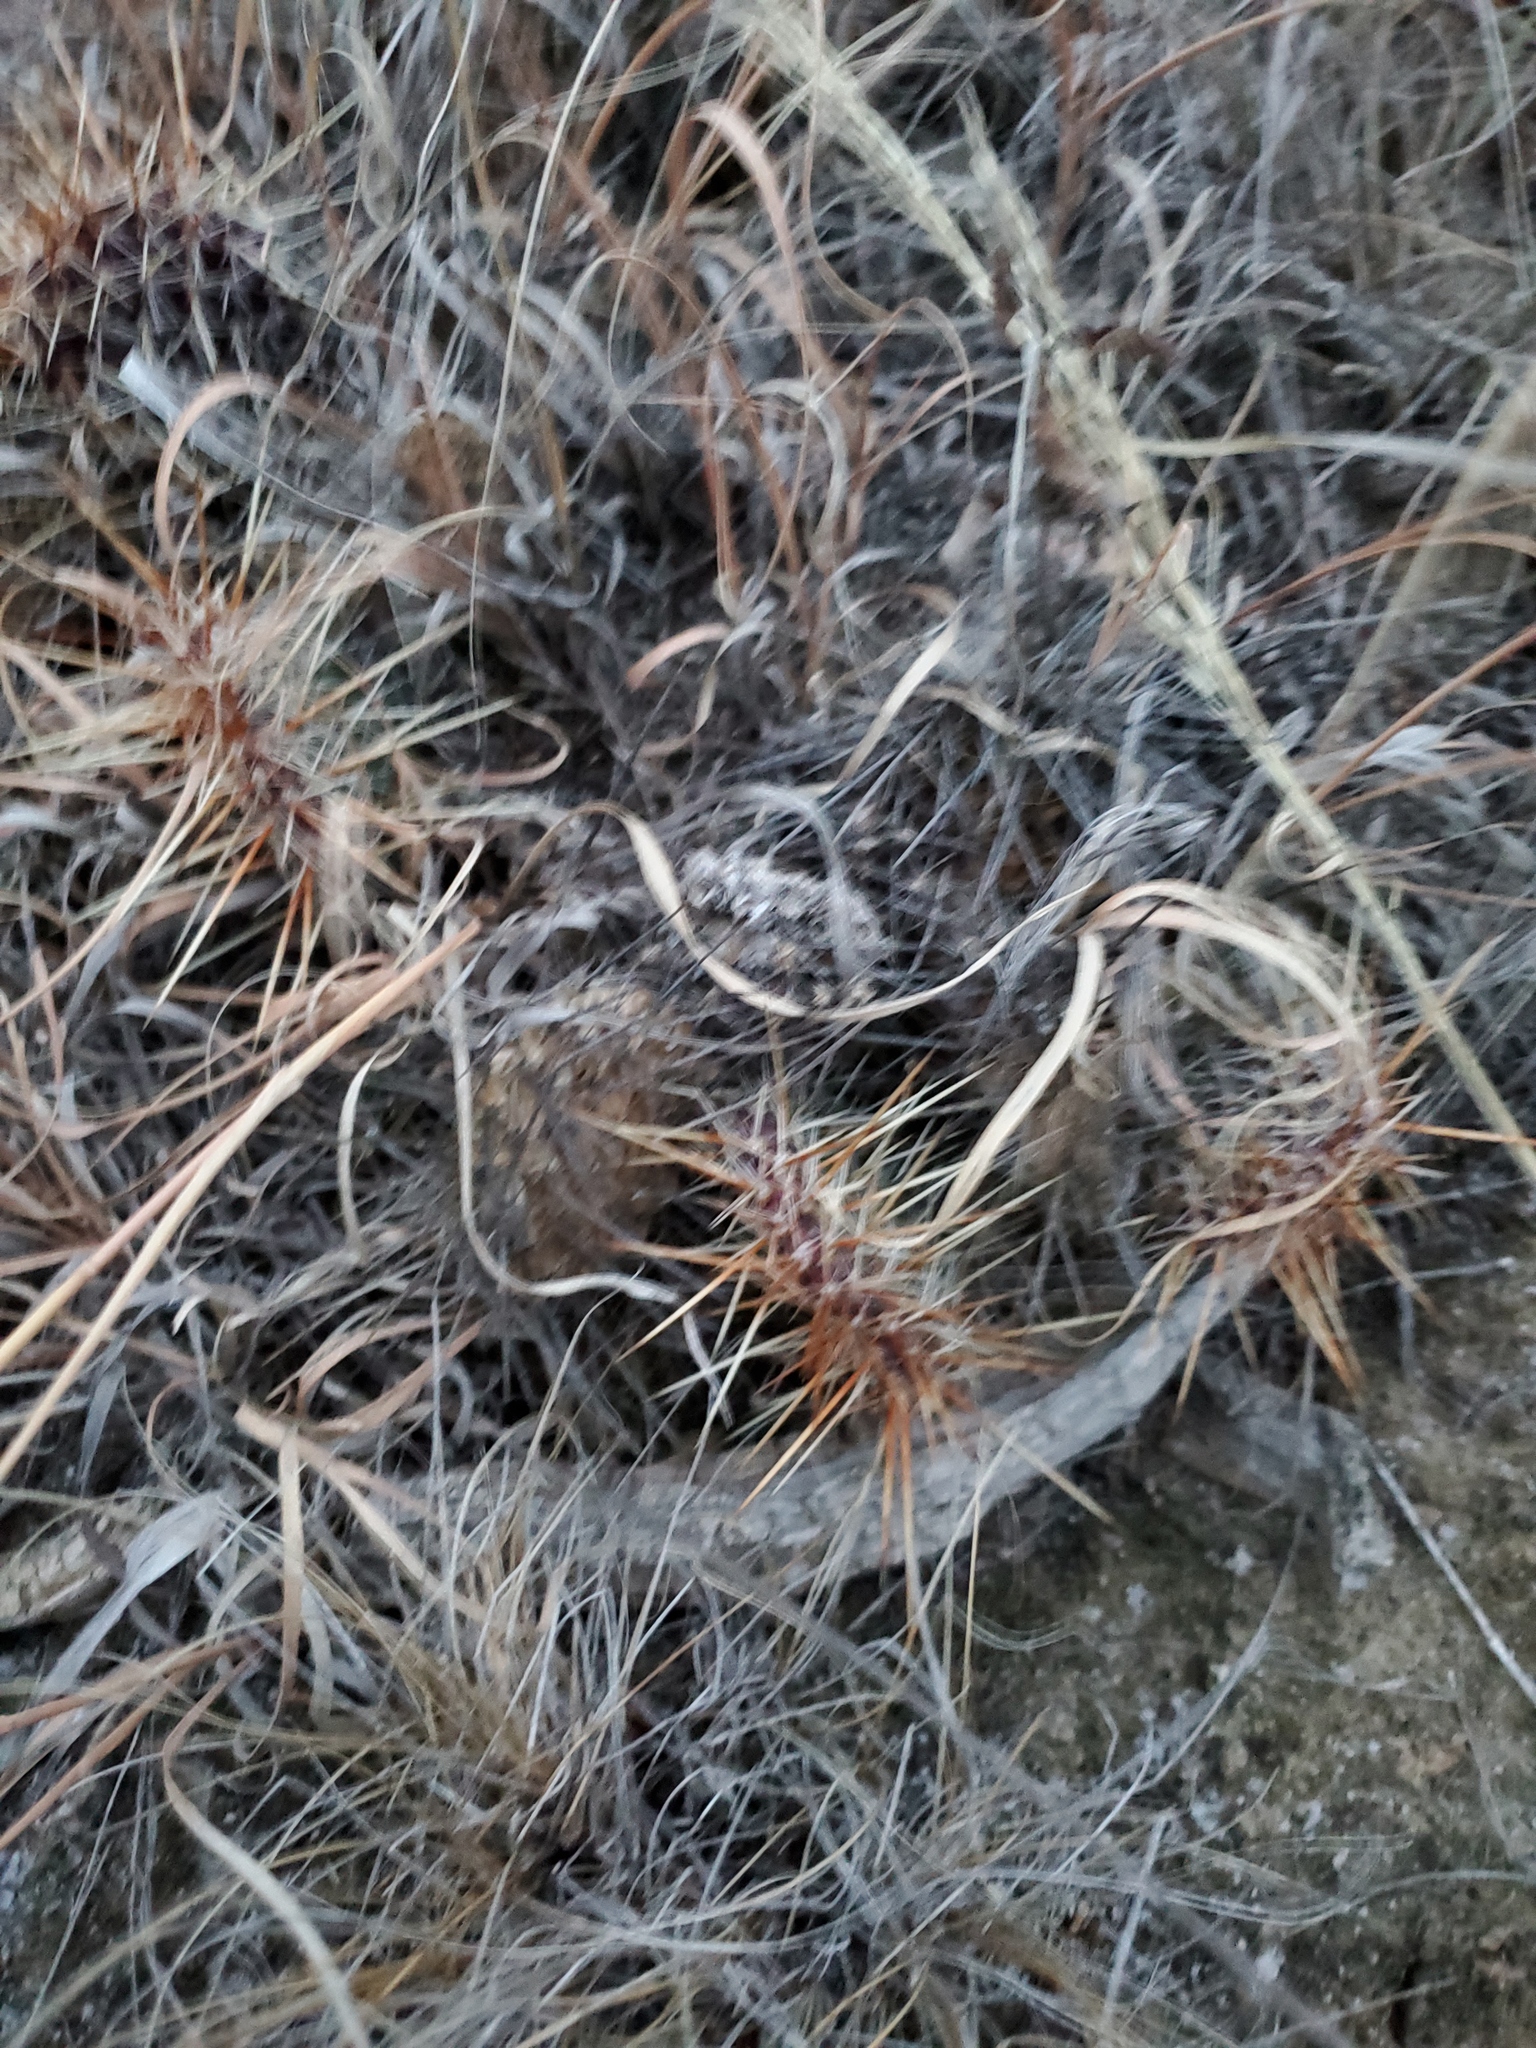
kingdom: Plantae
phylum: Tracheophyta
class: Magnoliopsida
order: Caryophyllales
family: Cactaceae
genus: Opuntia
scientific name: Opuntia polyacantha
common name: Plains prickly-pear
